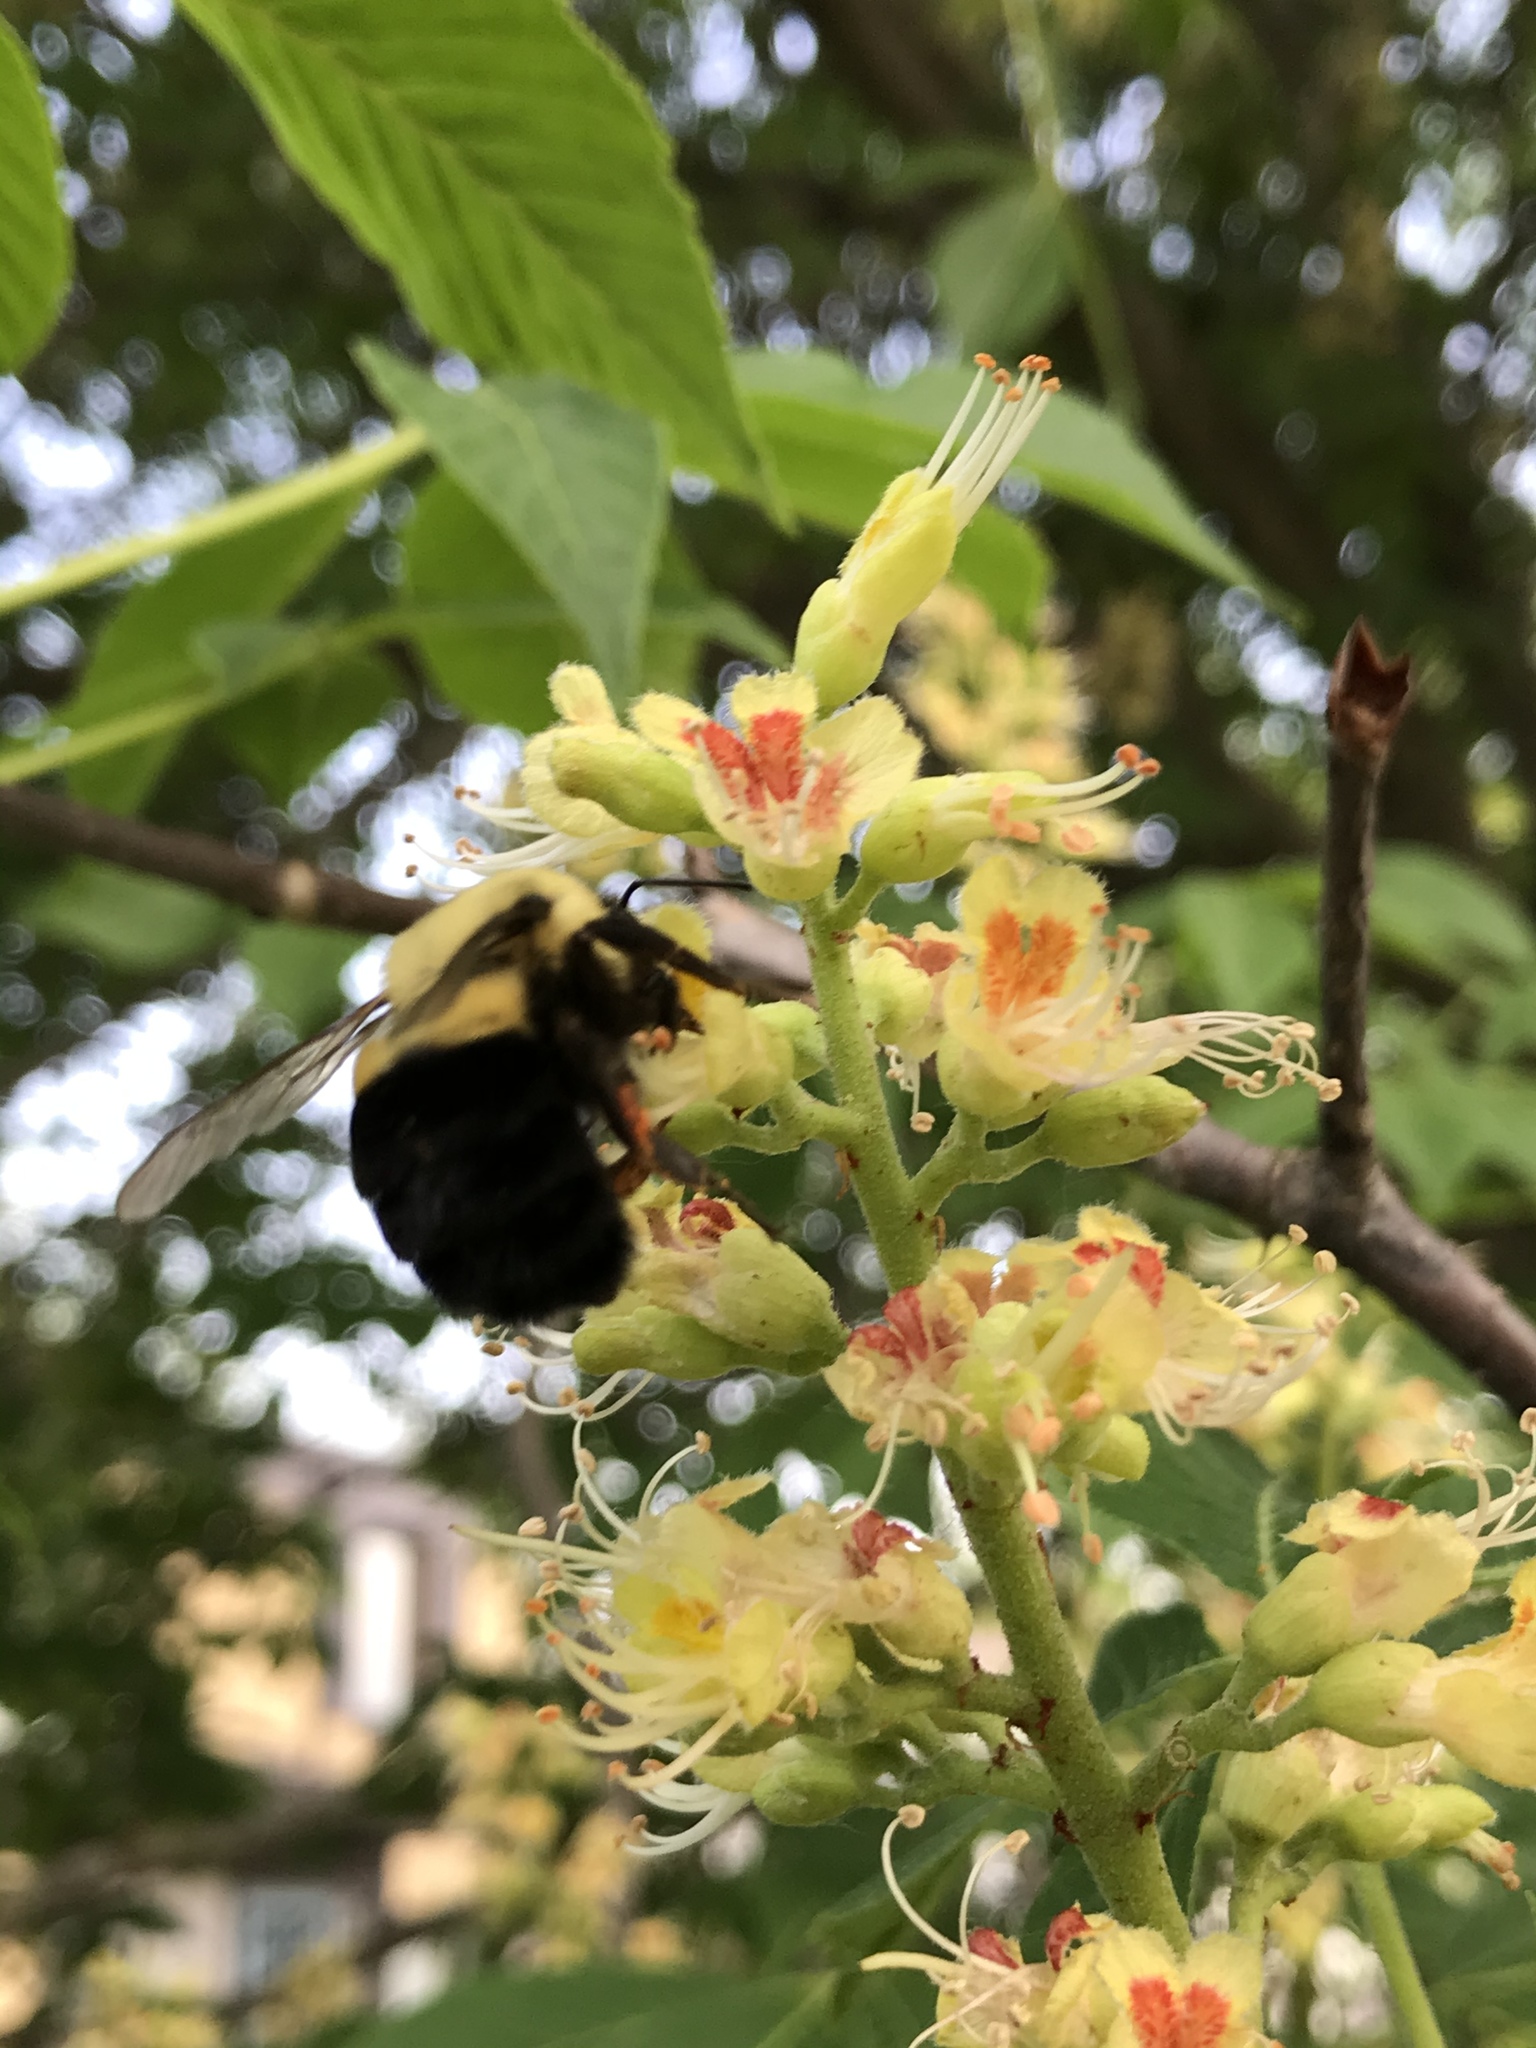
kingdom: Animalia
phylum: Arthropoda
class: Insecta
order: Hymenoptera
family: Apidae
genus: Bombus
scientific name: Bombus impatiens
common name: Common eastern bumble bee
